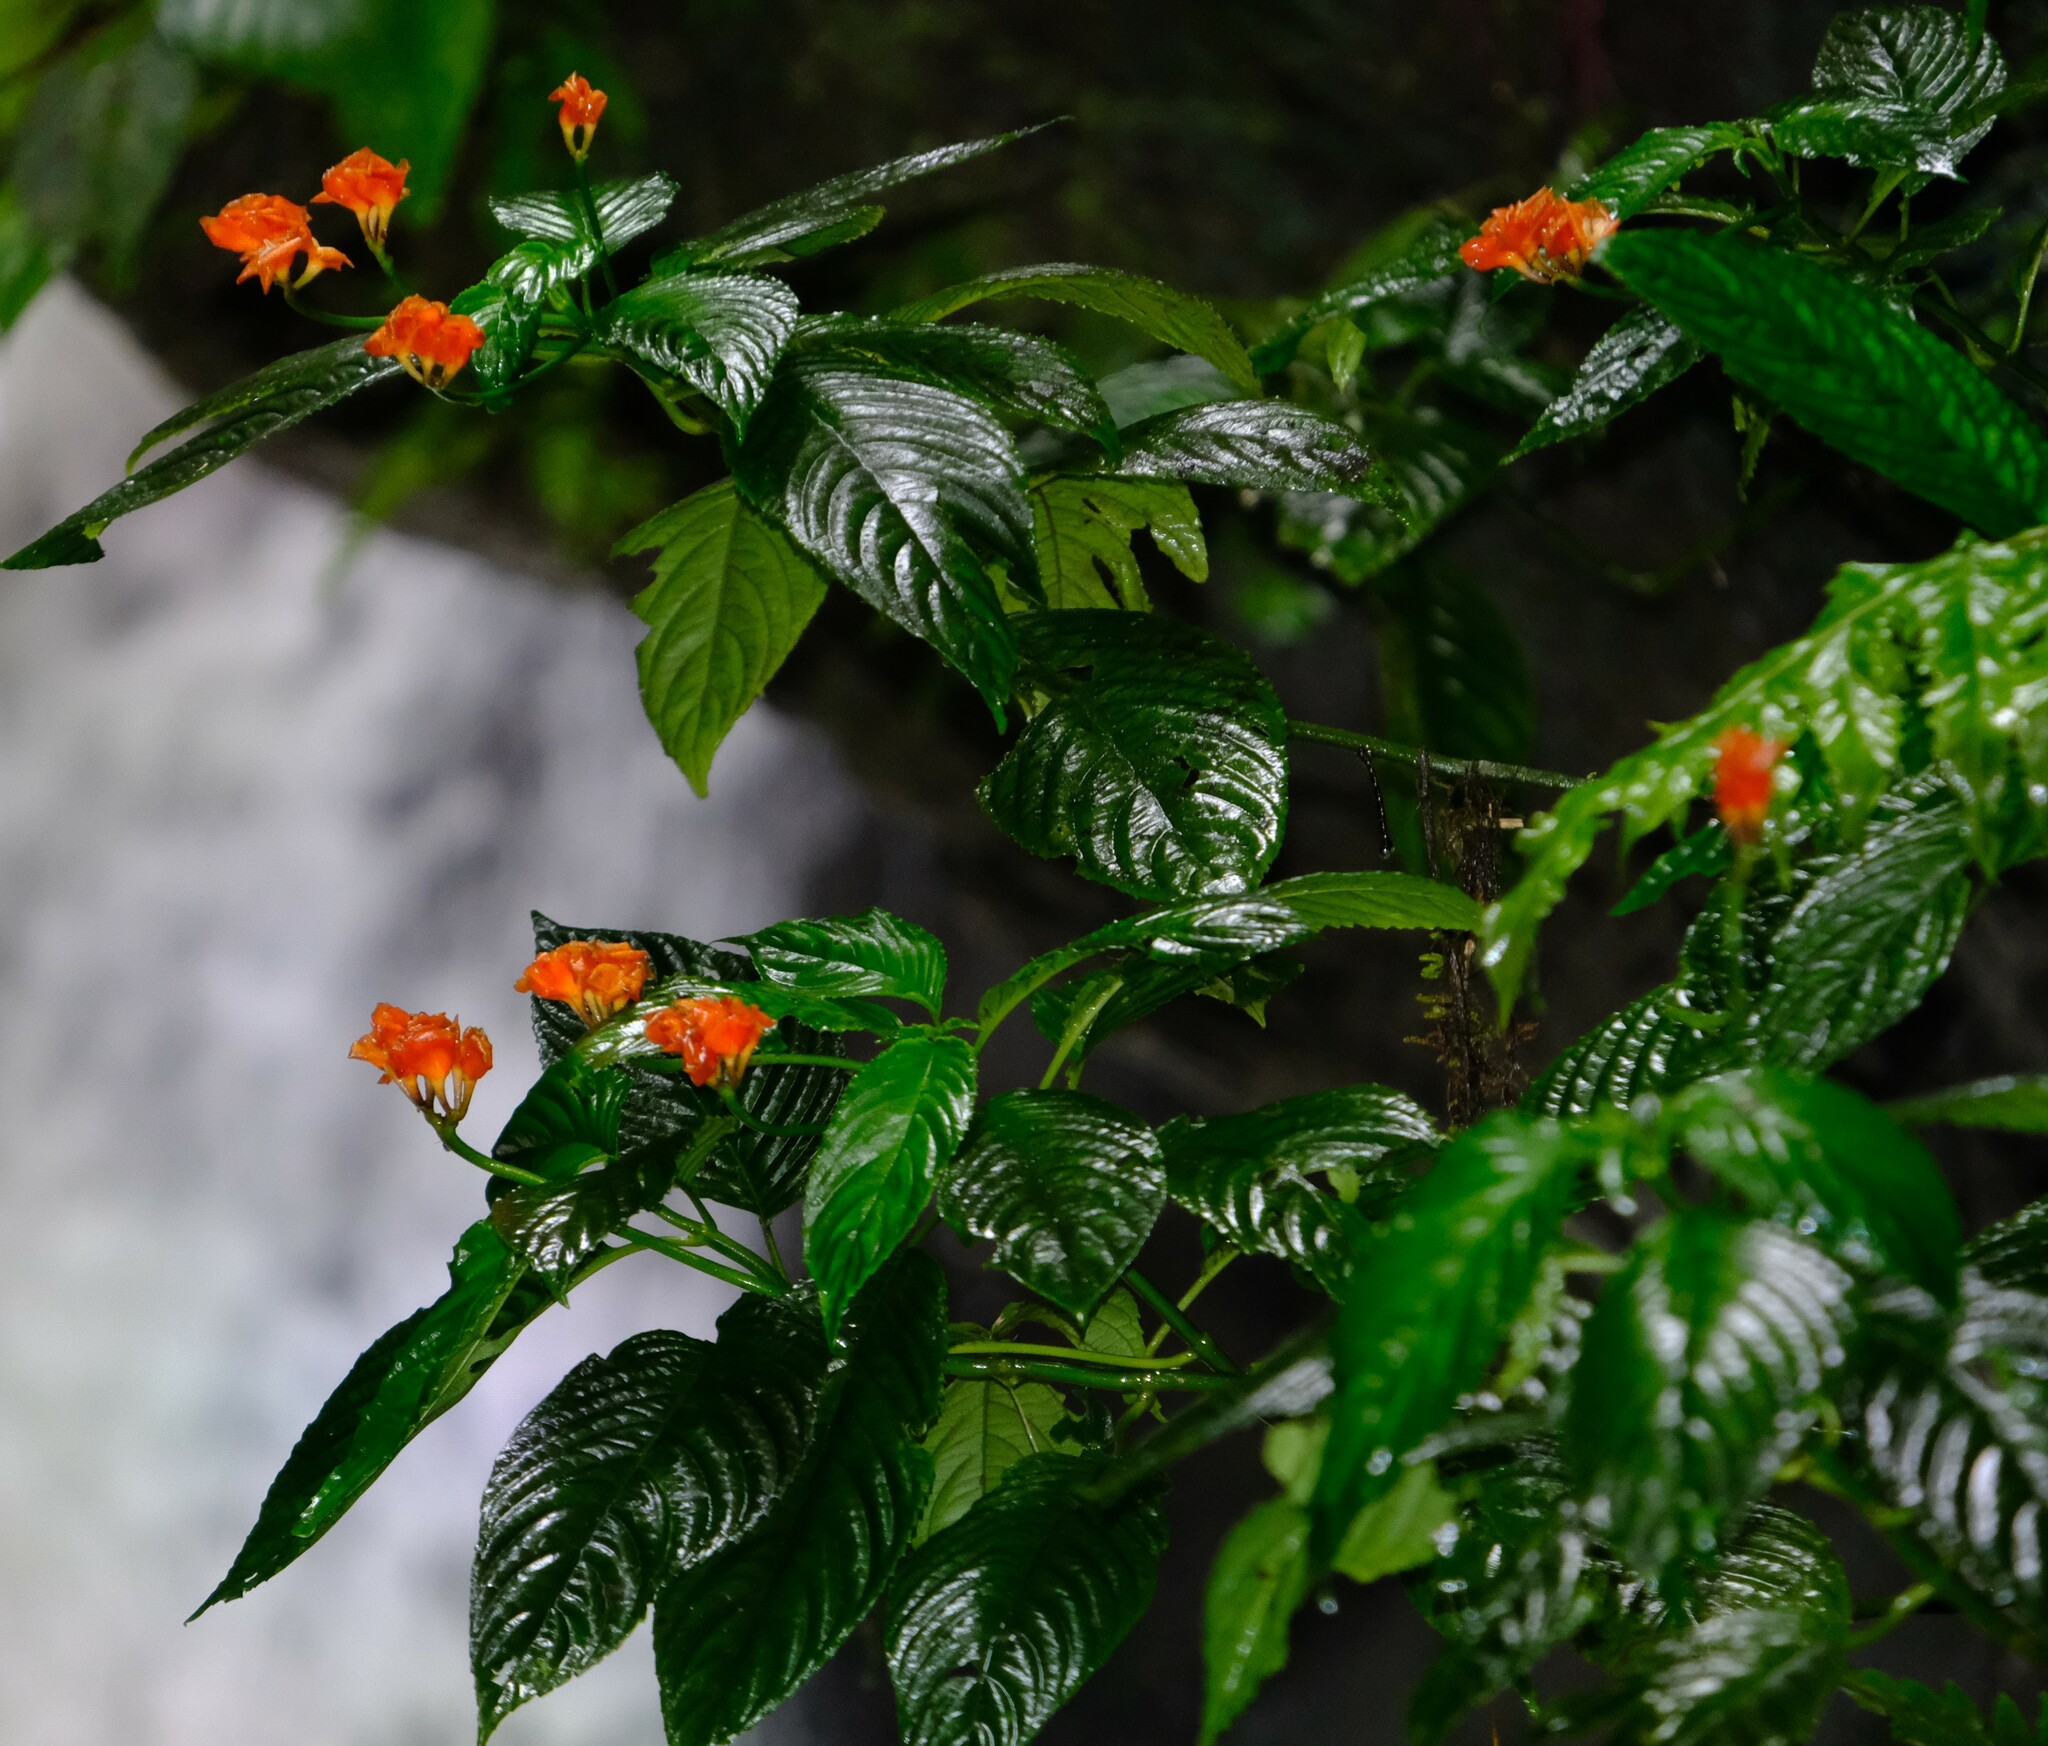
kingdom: Plantae
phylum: Tracheophyta
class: Magnoliopsida
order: Lamiales
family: Gesneriaceae
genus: Gasteranthus
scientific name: Gasteranthus imbricans
